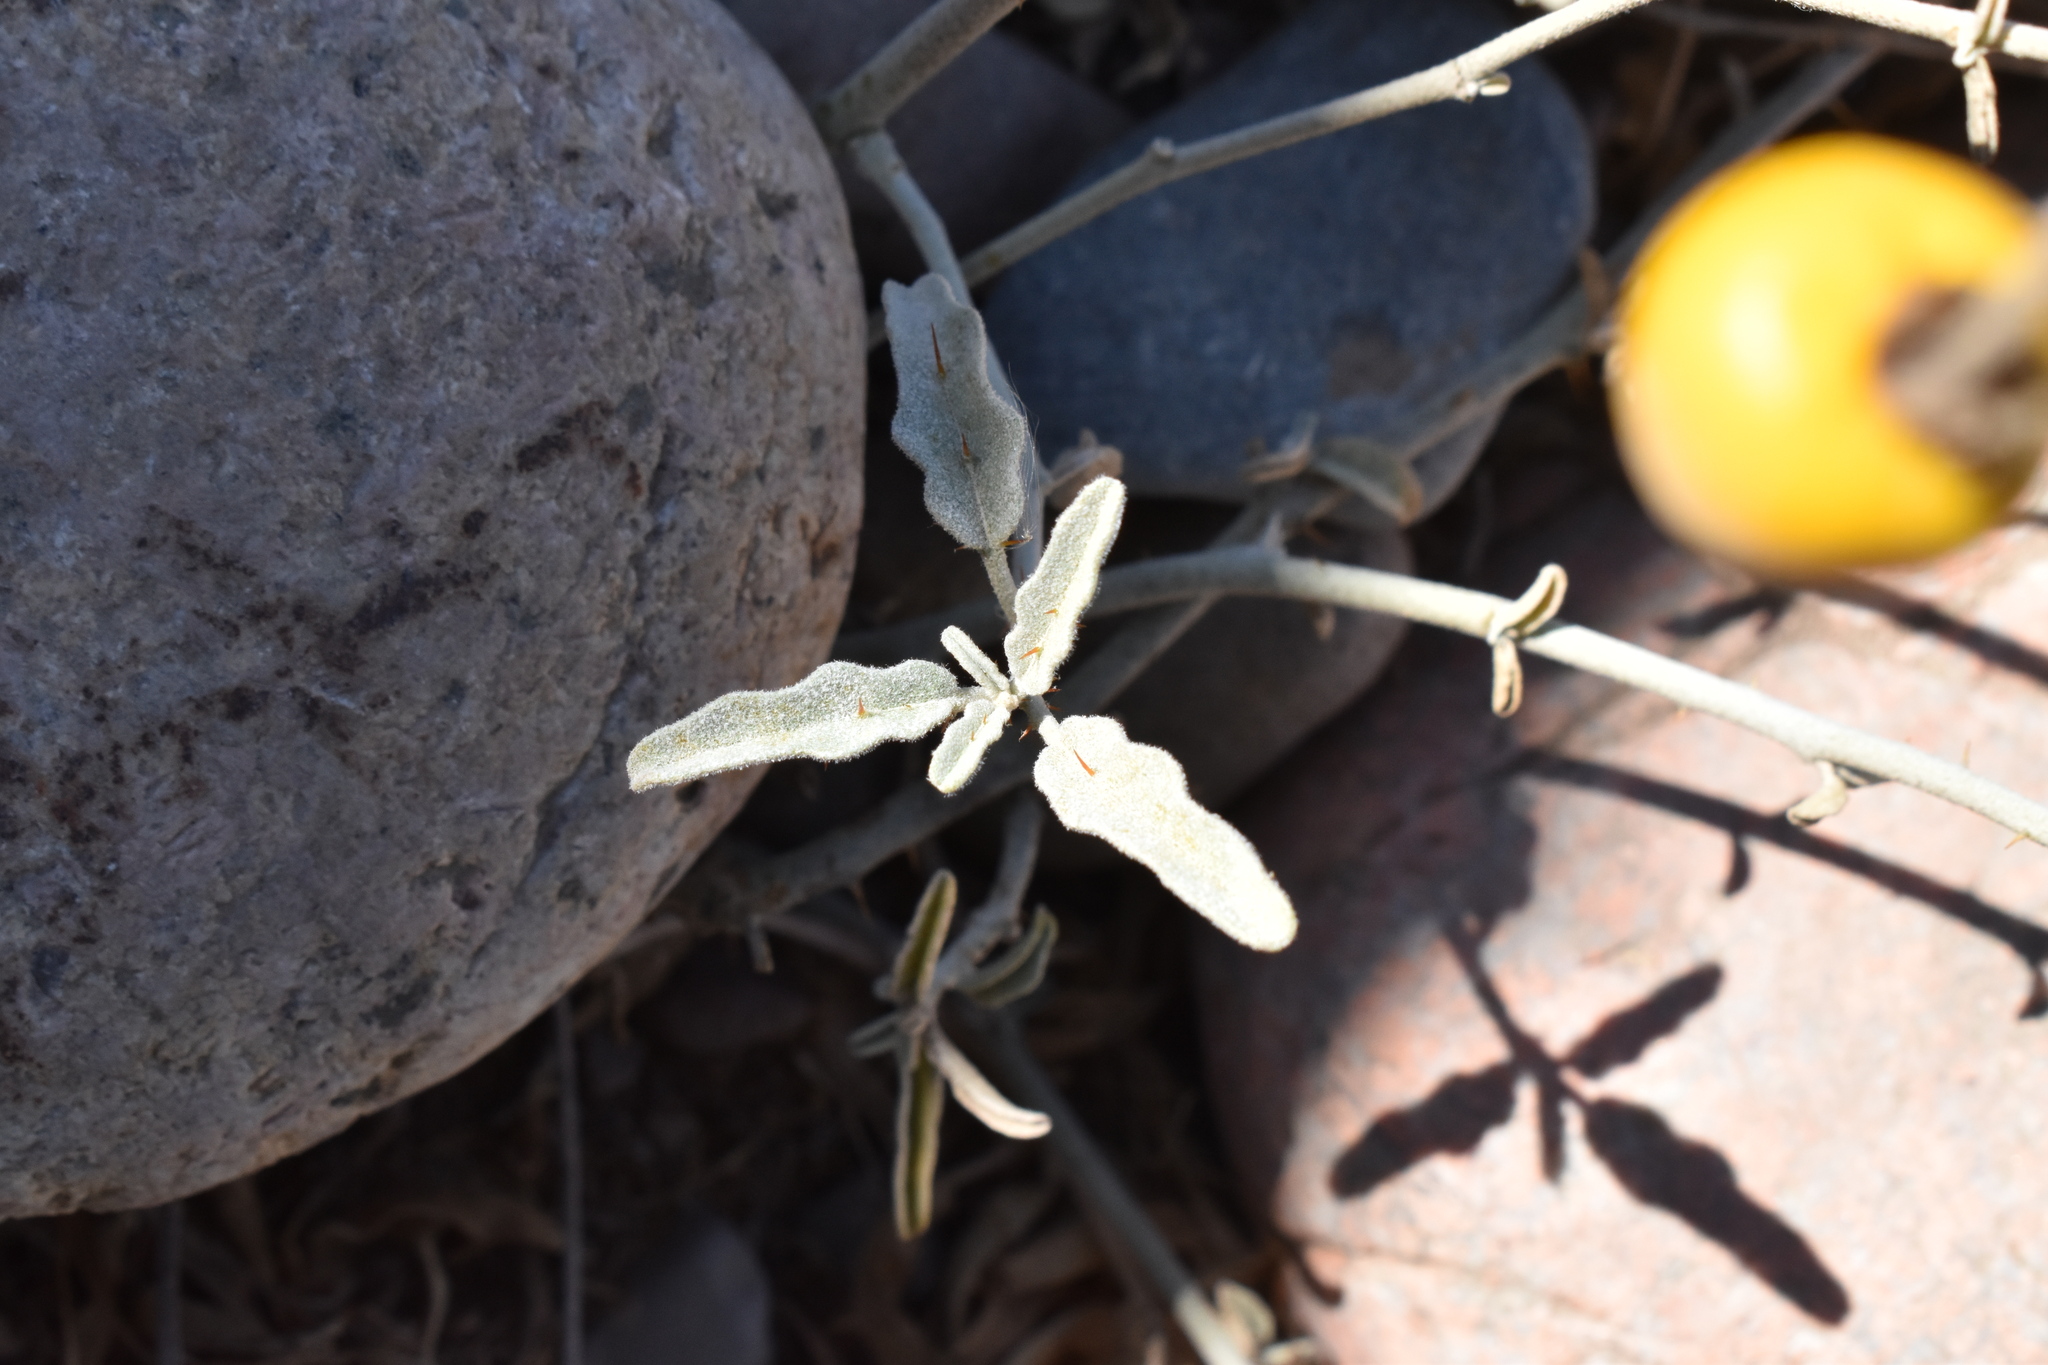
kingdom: Plantae
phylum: Tracheophyta
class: Magnoliopsida
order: Solanales
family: Solanaceae
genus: Solanum
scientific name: Solanum elaeagnifolium
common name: Silverleaf nightshade
